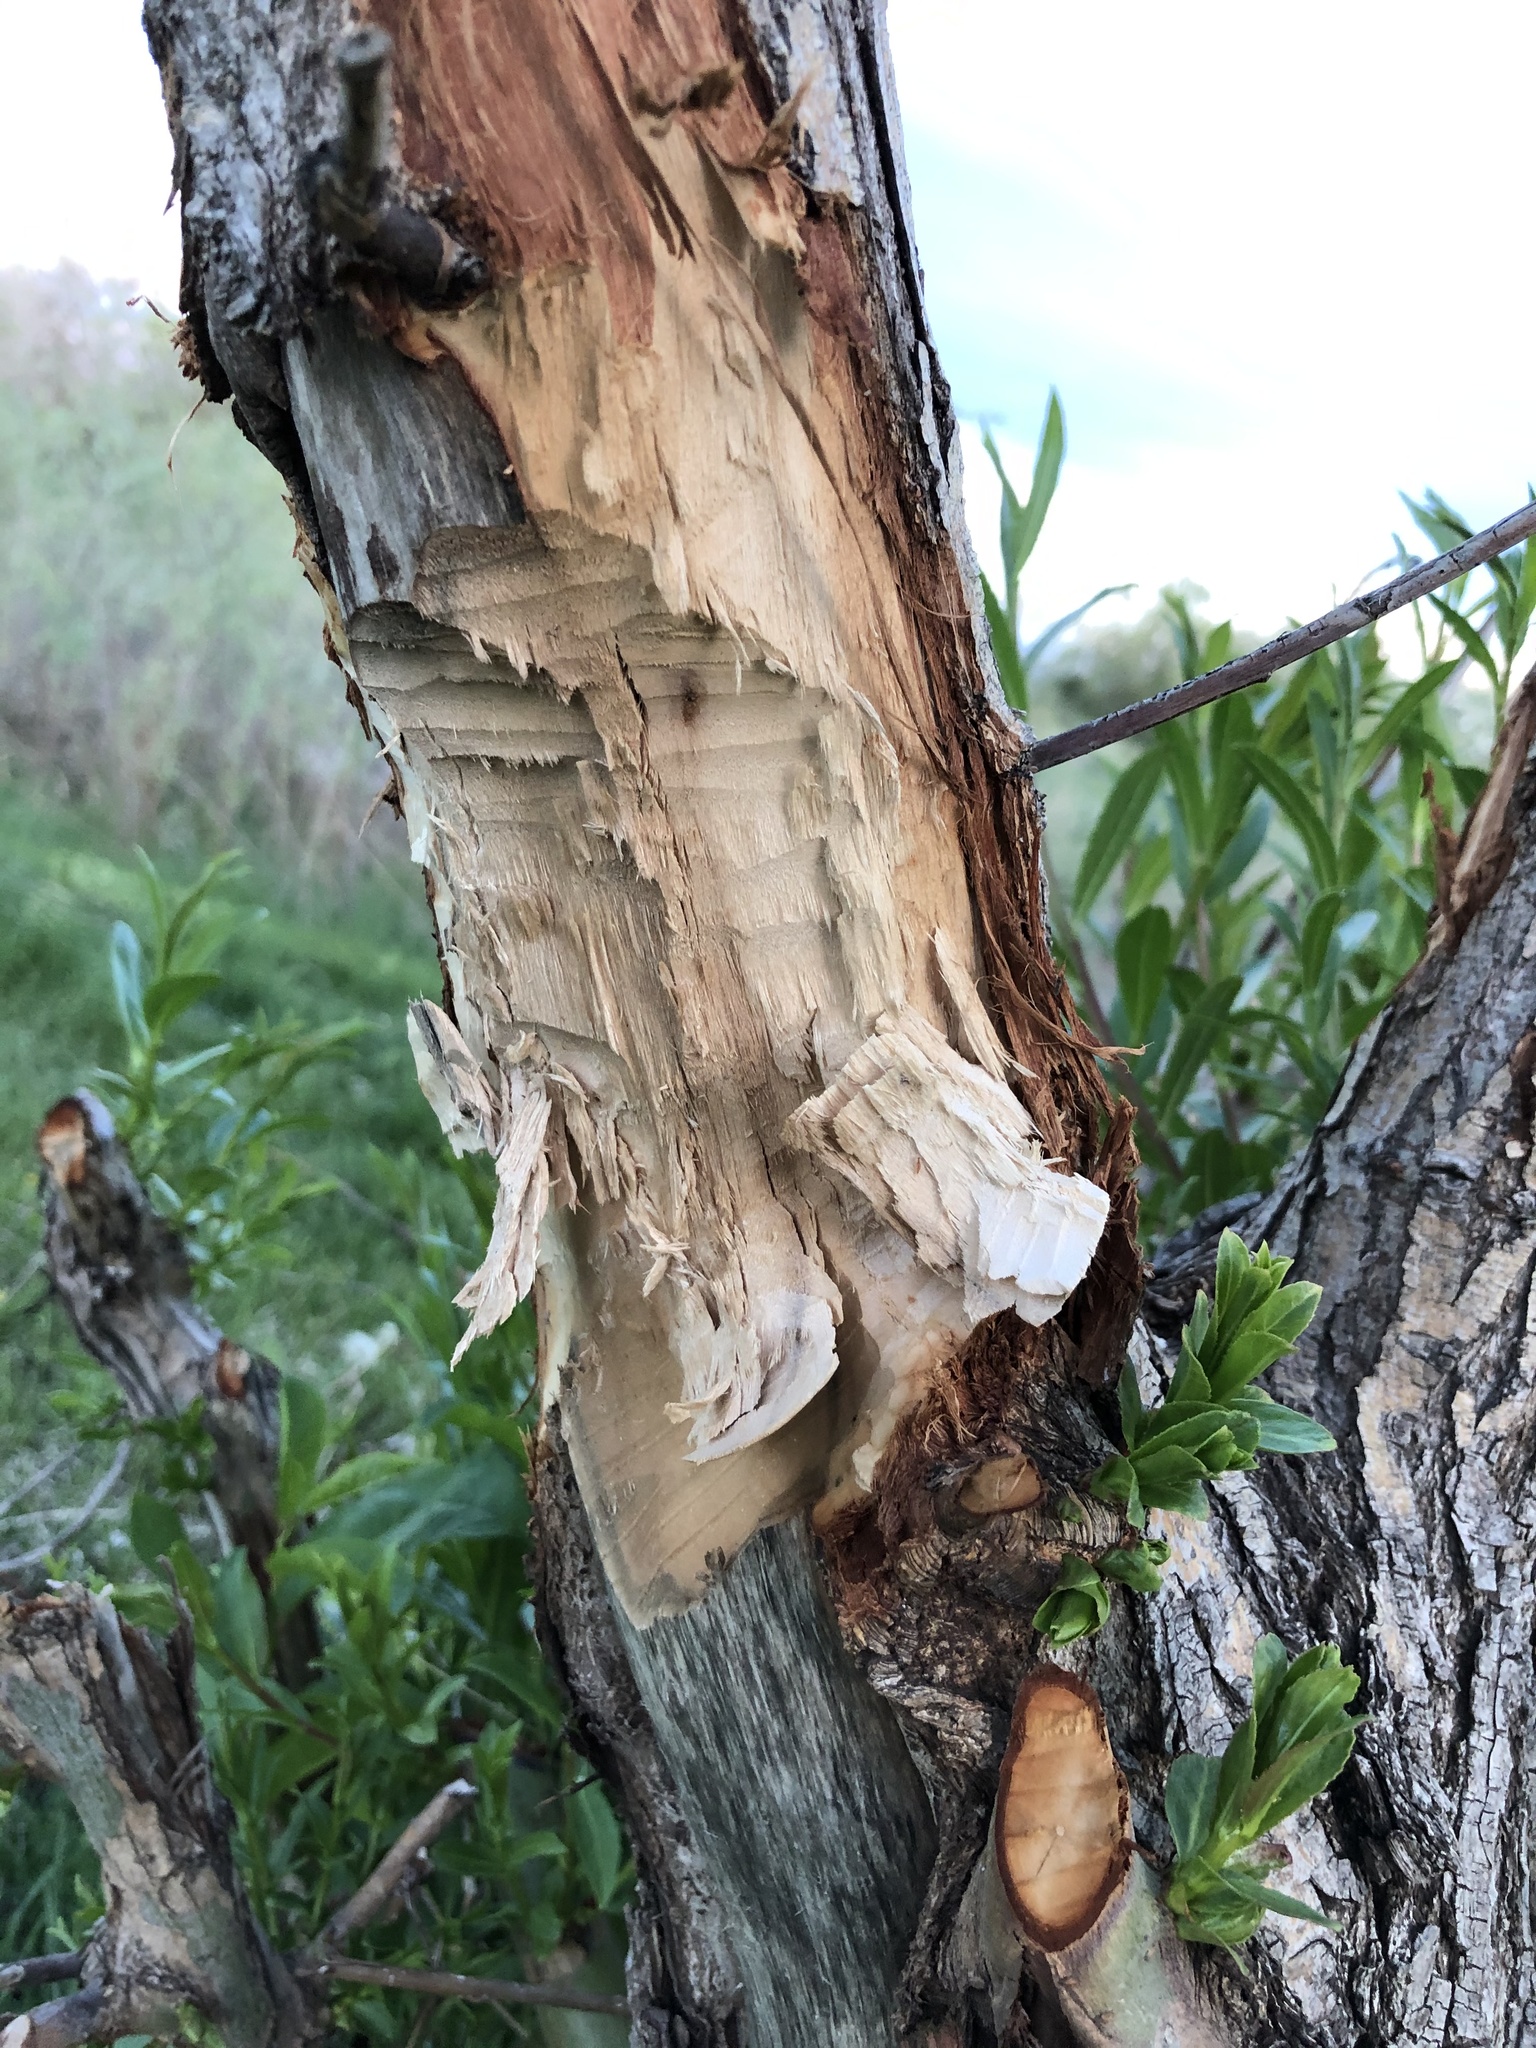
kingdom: Animalia
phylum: Chordata
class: Mammalia
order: Rodentia
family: Castoridae
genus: Castor
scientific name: Castor canadensis
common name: American beaver
